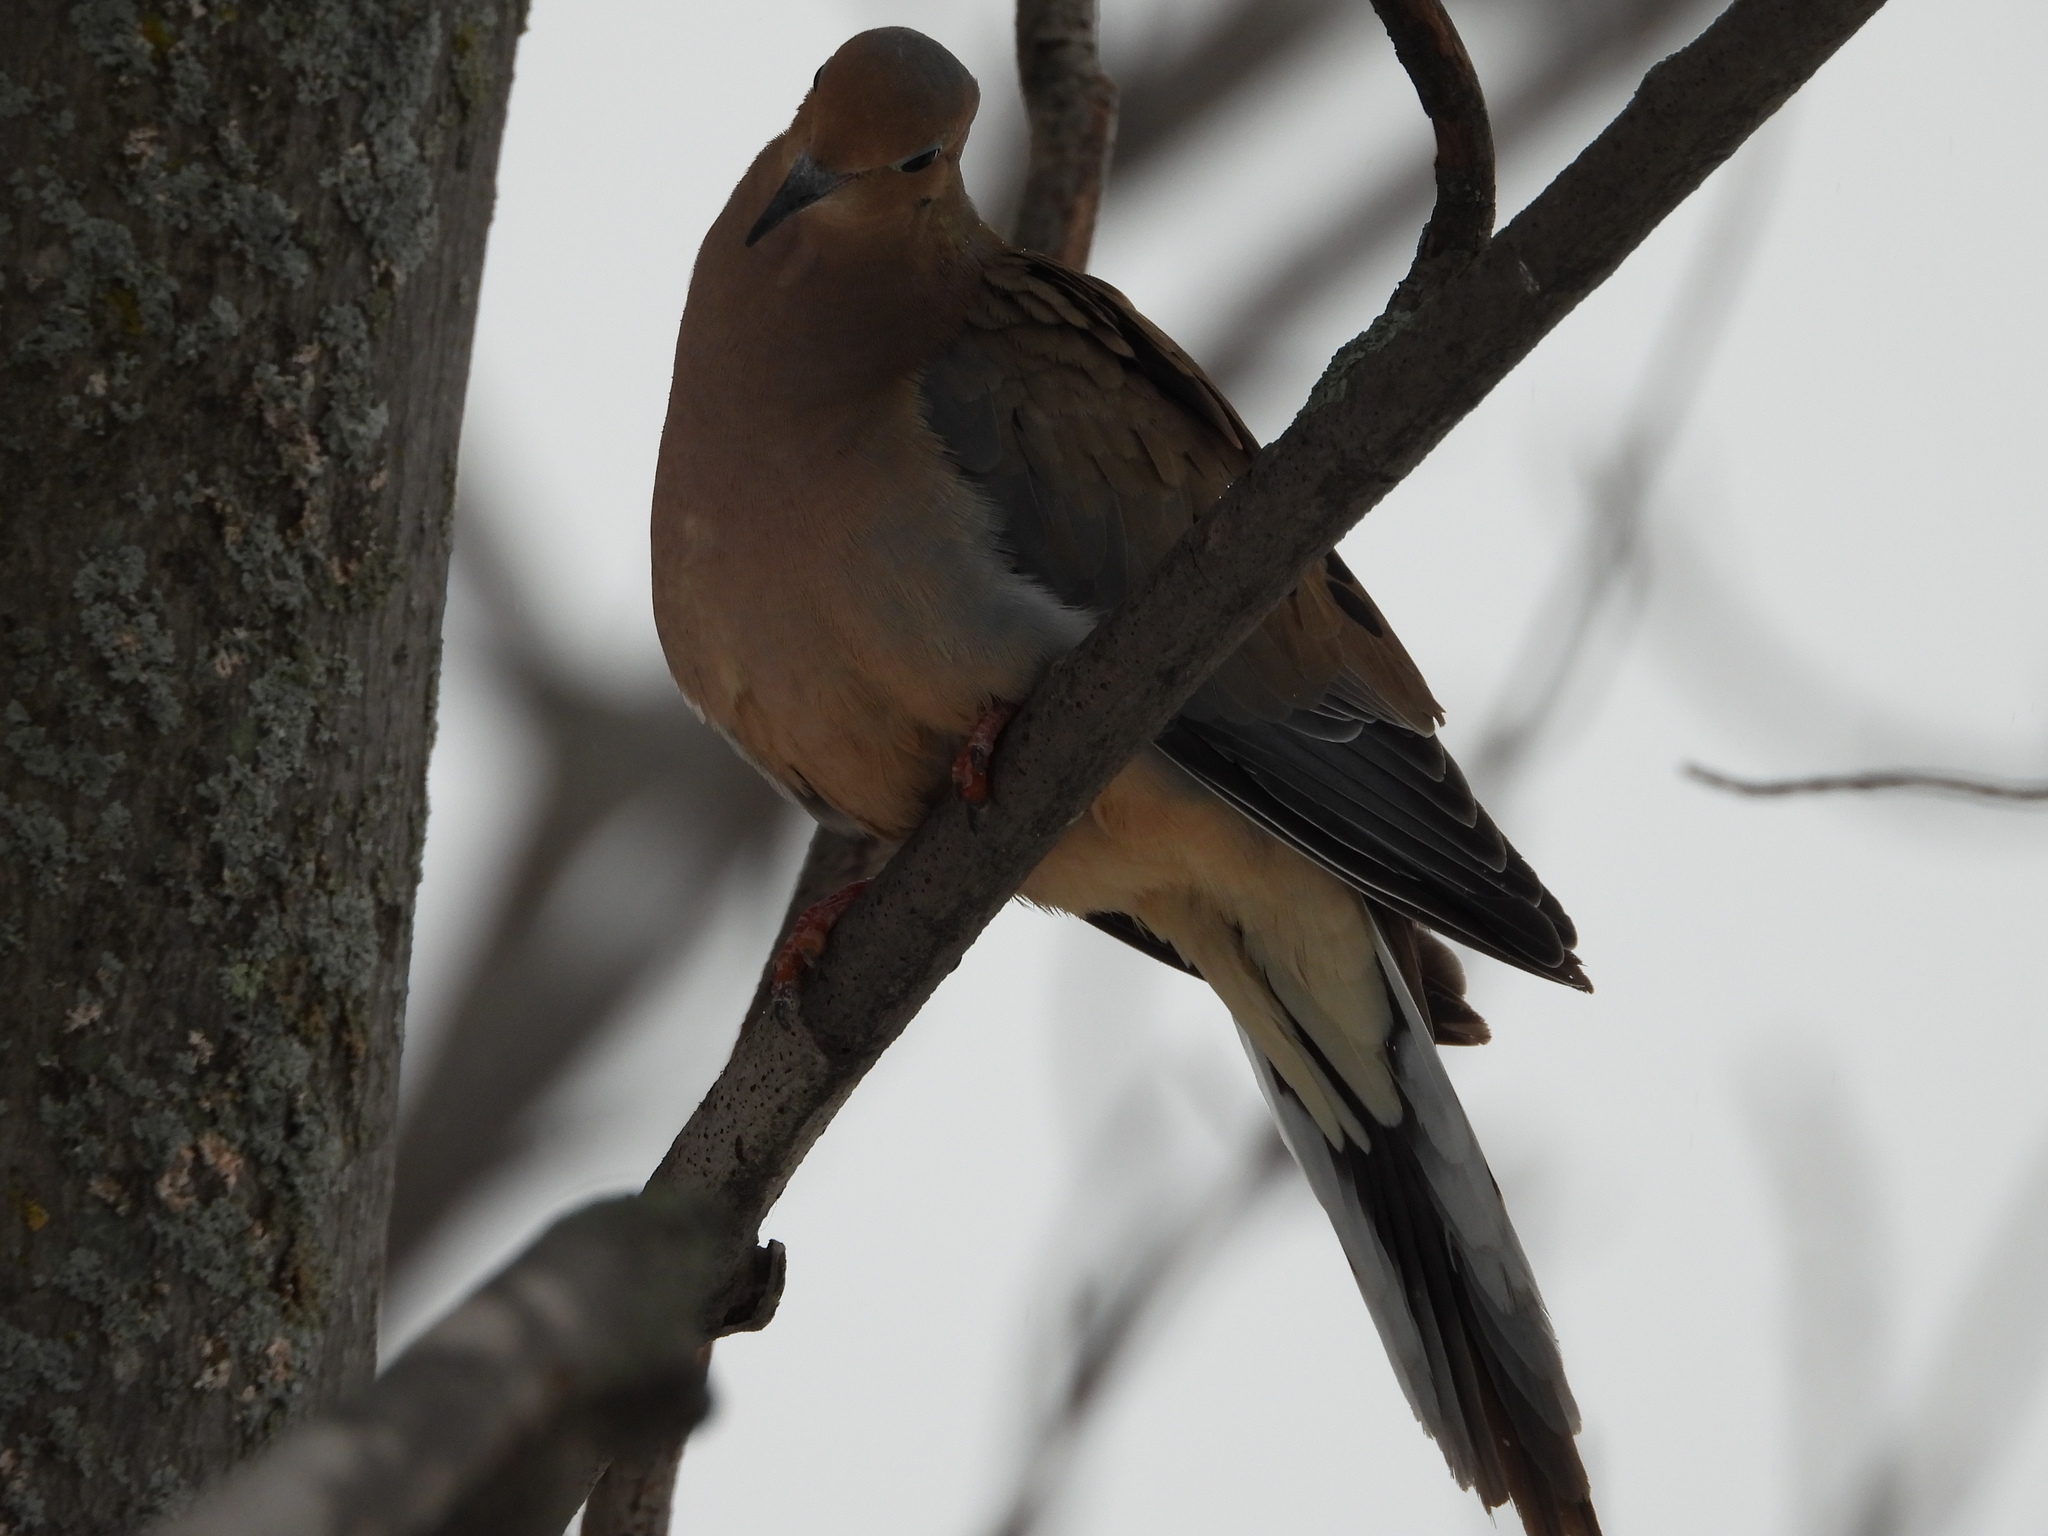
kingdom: Animalia
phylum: Chordata
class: Aves
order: Columbiformes
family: Columbidae
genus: Zenaida
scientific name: Zenaida macroura
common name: Mourning dove
